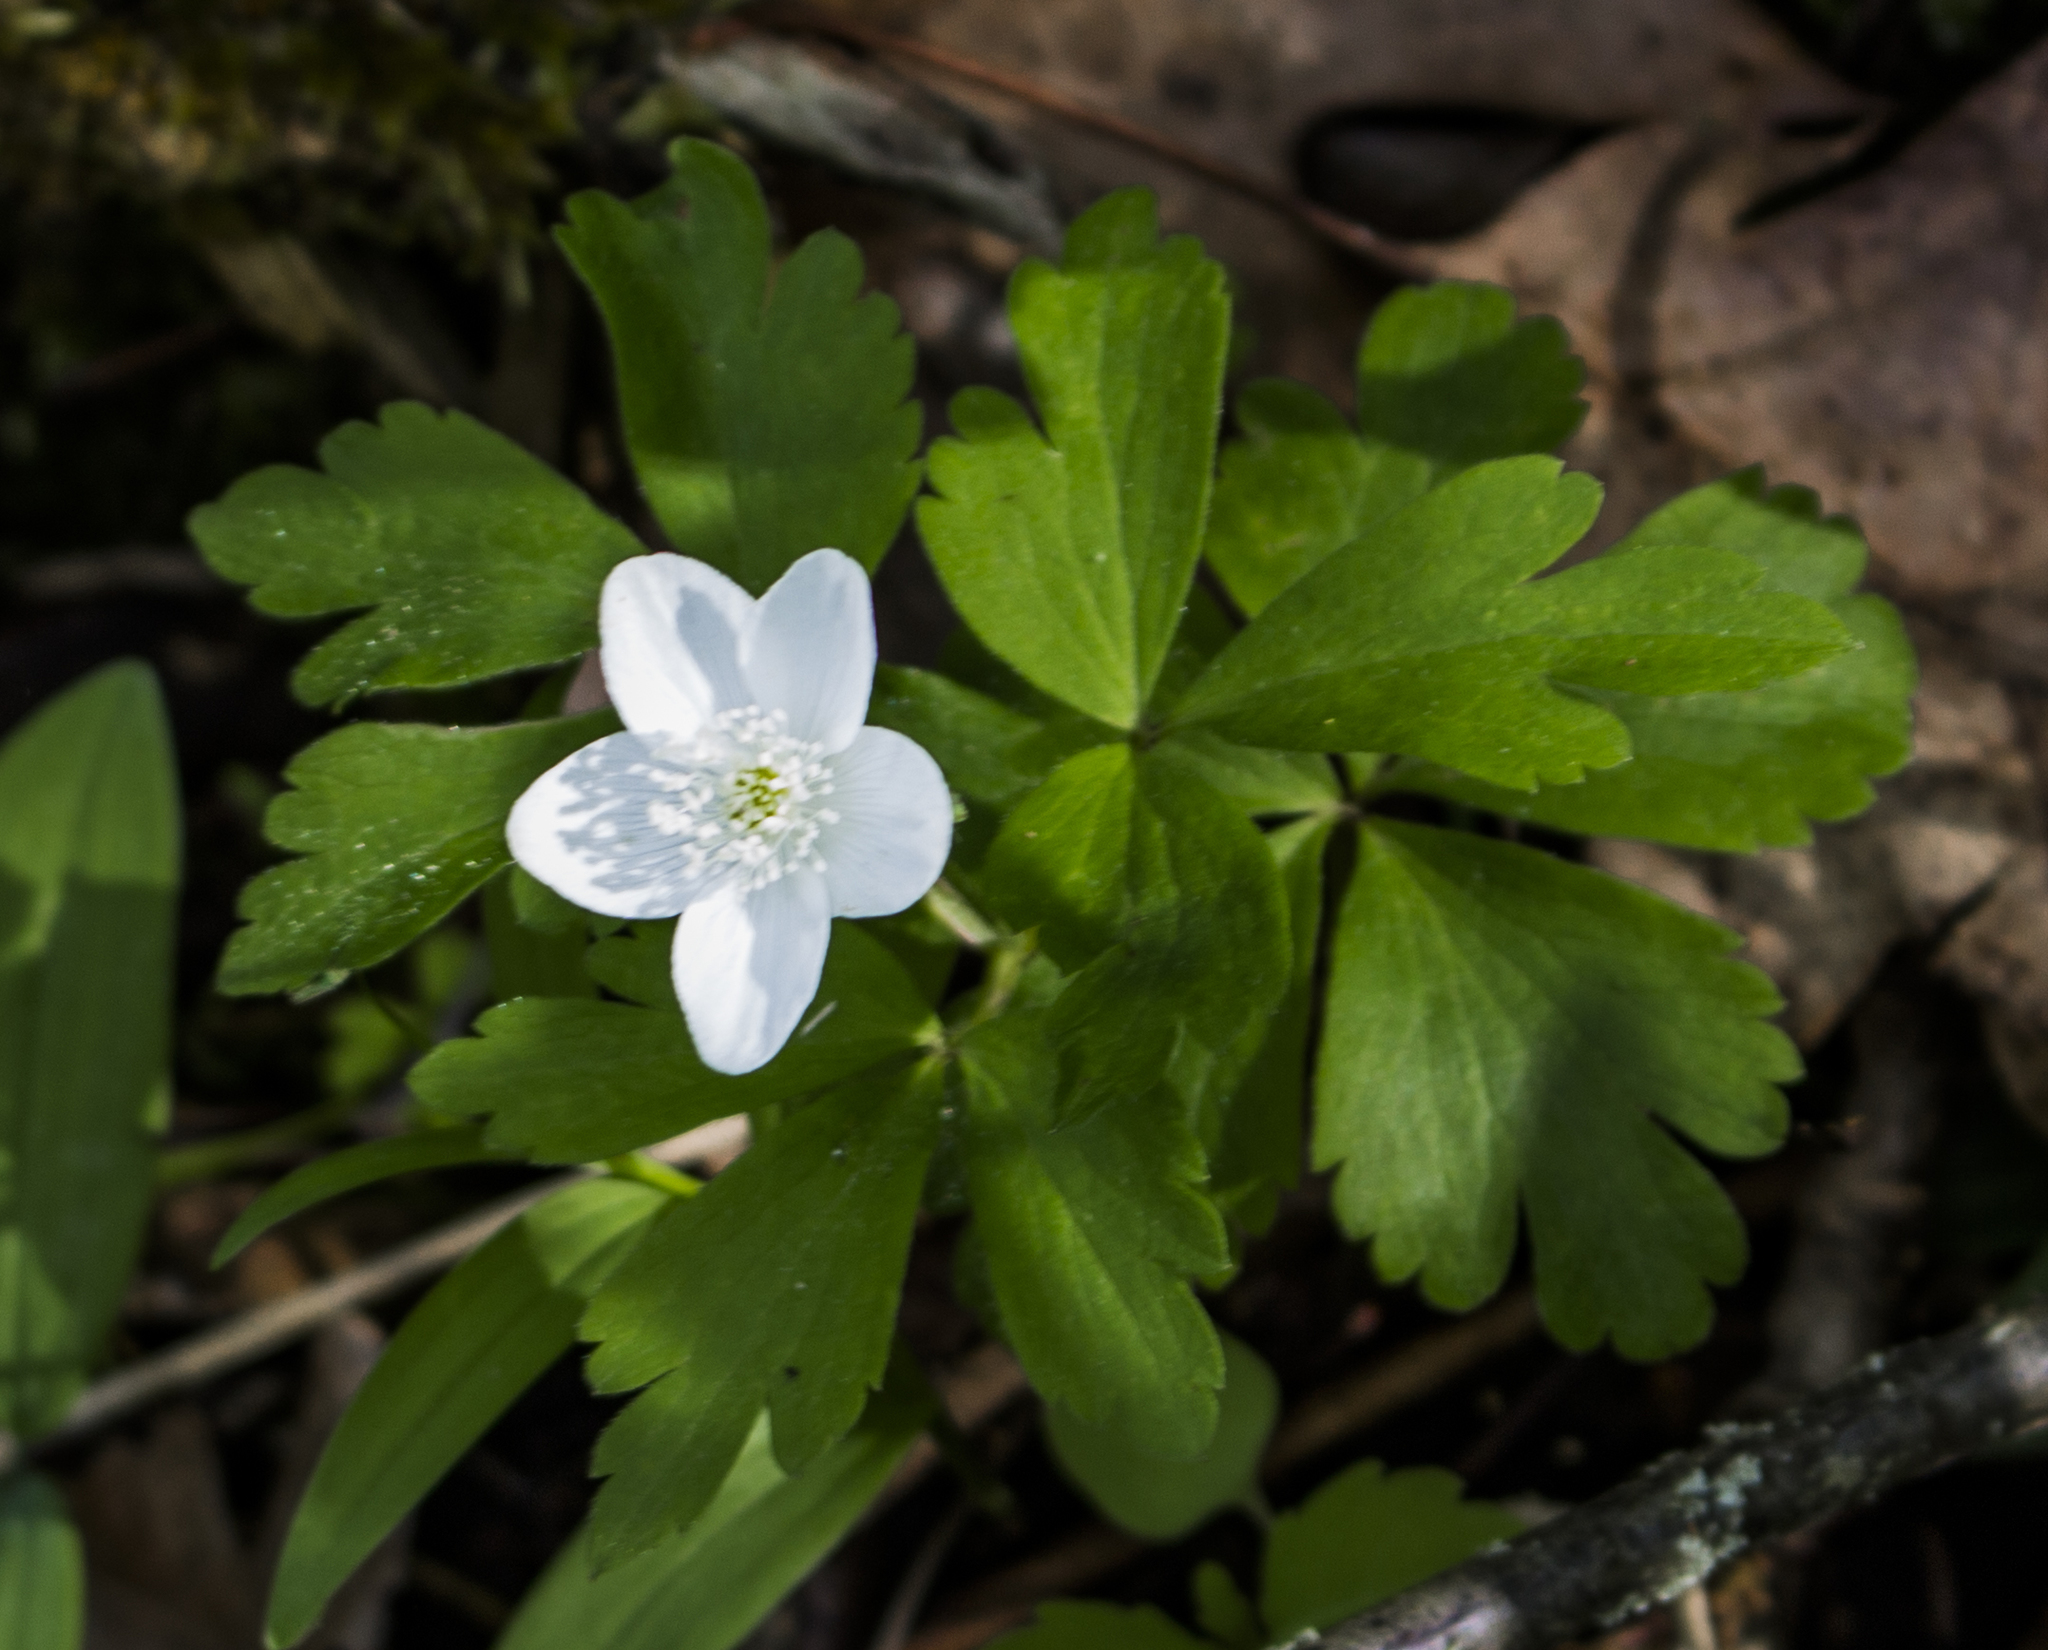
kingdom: Plantae
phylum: Tracheophyta
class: Magnoliopsida
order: Ranunculales
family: Ranunculaceae
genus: Anemone
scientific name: Anemone quinquefolia
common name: Wood anemone
